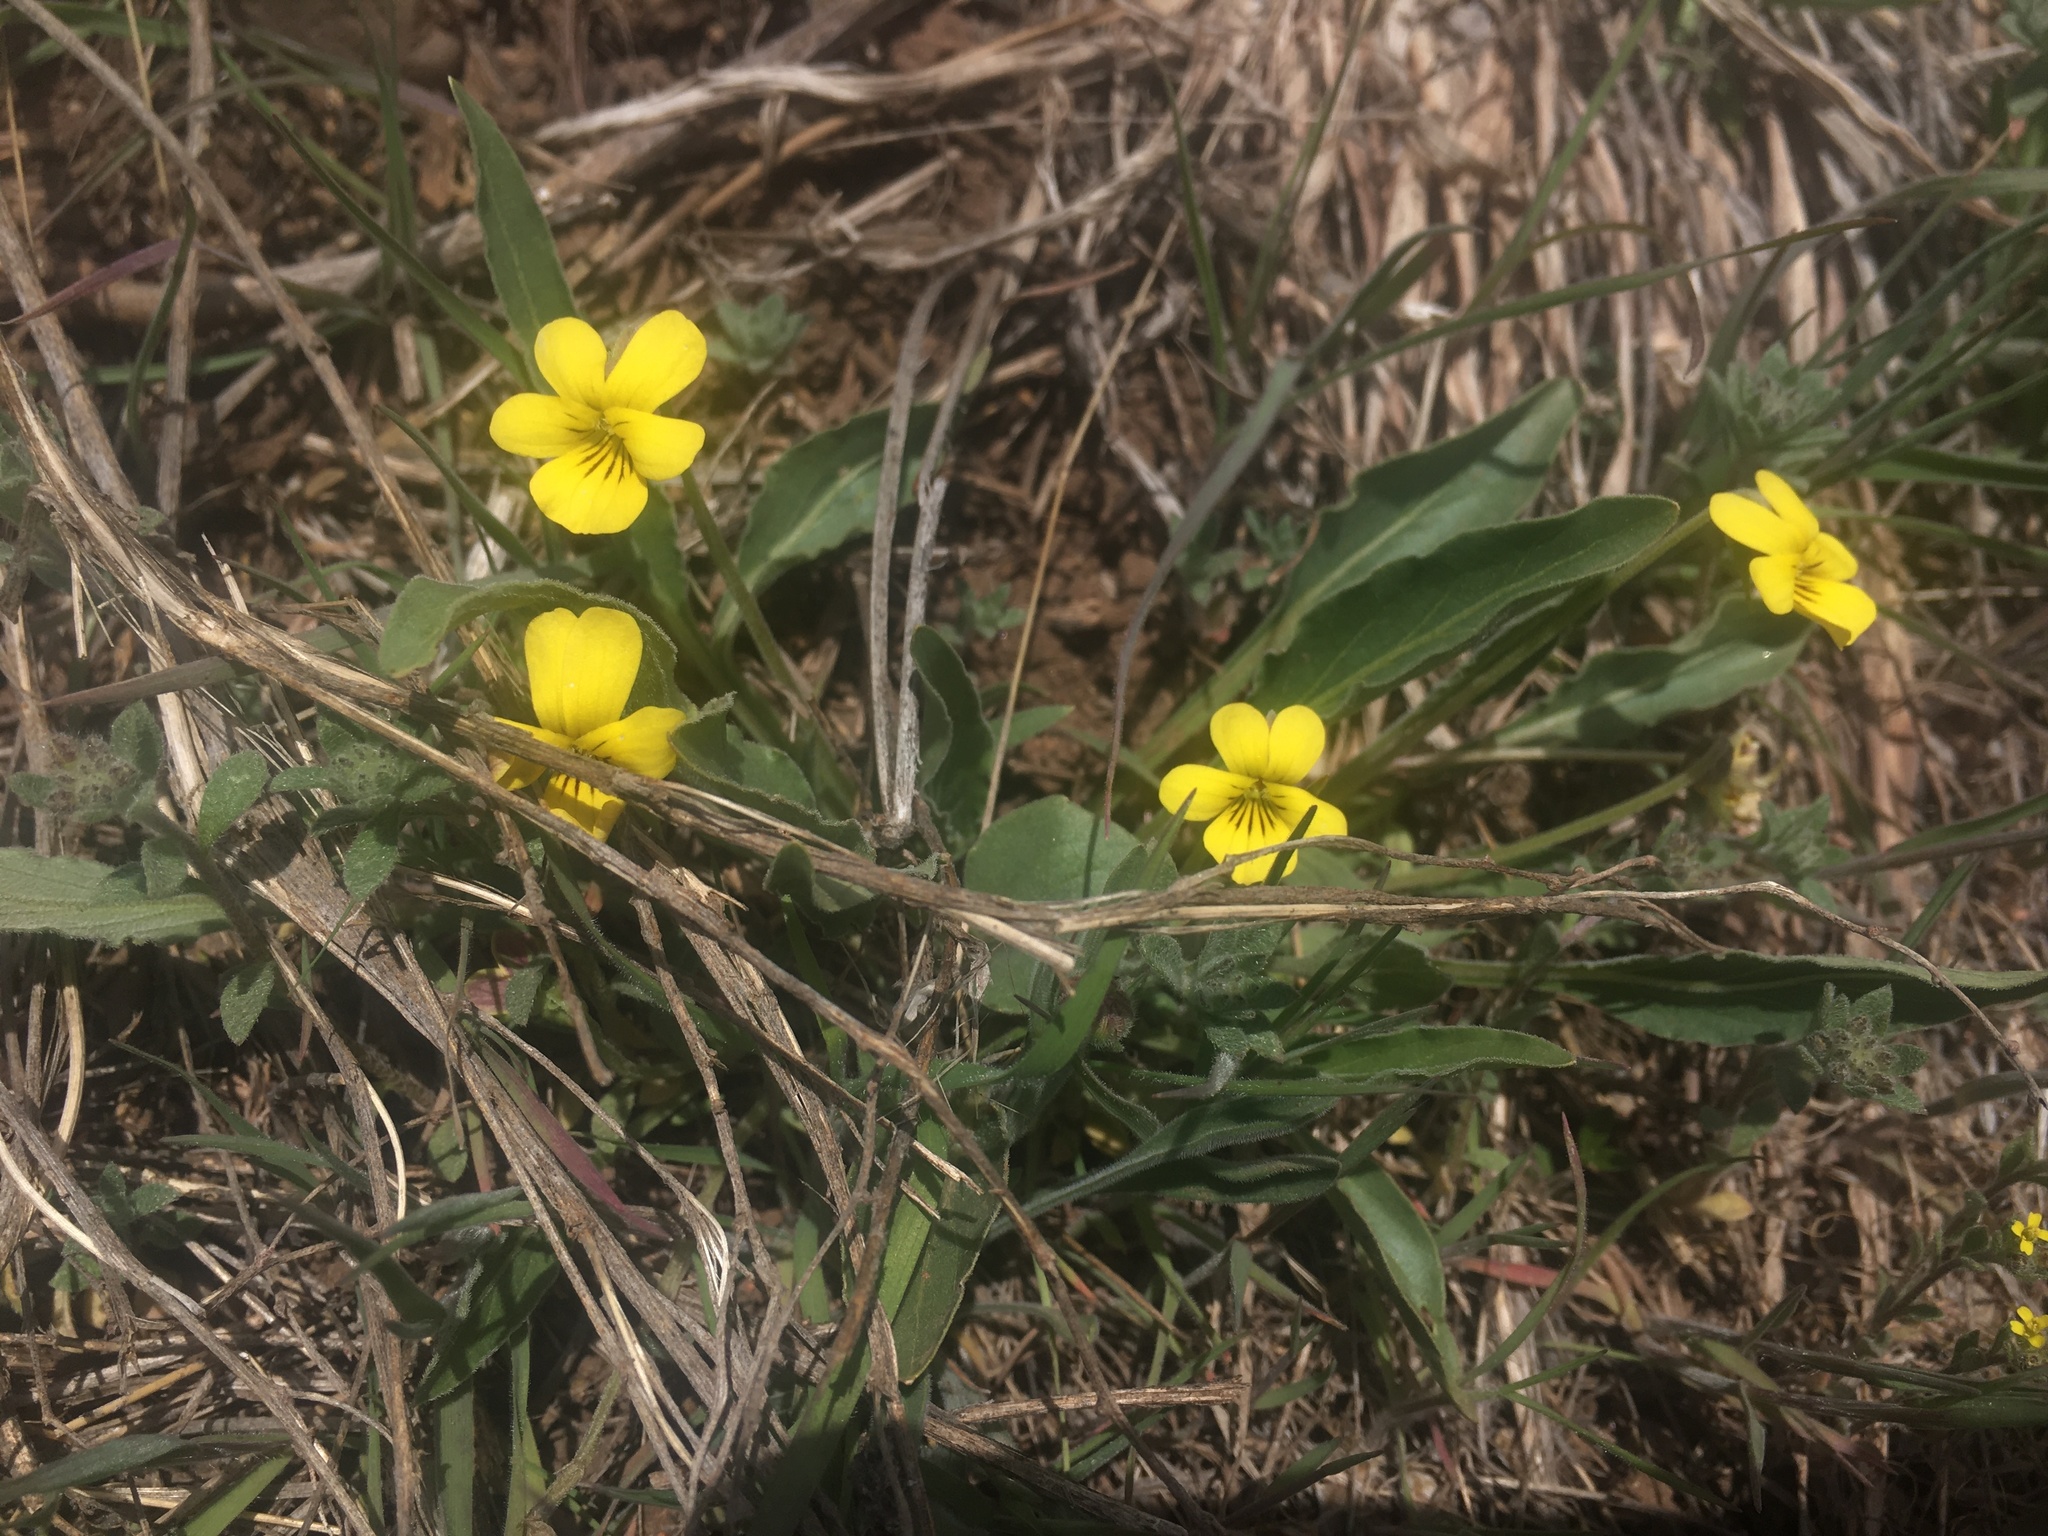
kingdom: Plantae
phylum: Tracheophyta
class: Magnoliopsida
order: Malpighiales
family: Violaceae
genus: Viola
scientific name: Viola nuttallii
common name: Yellow prairie violet
